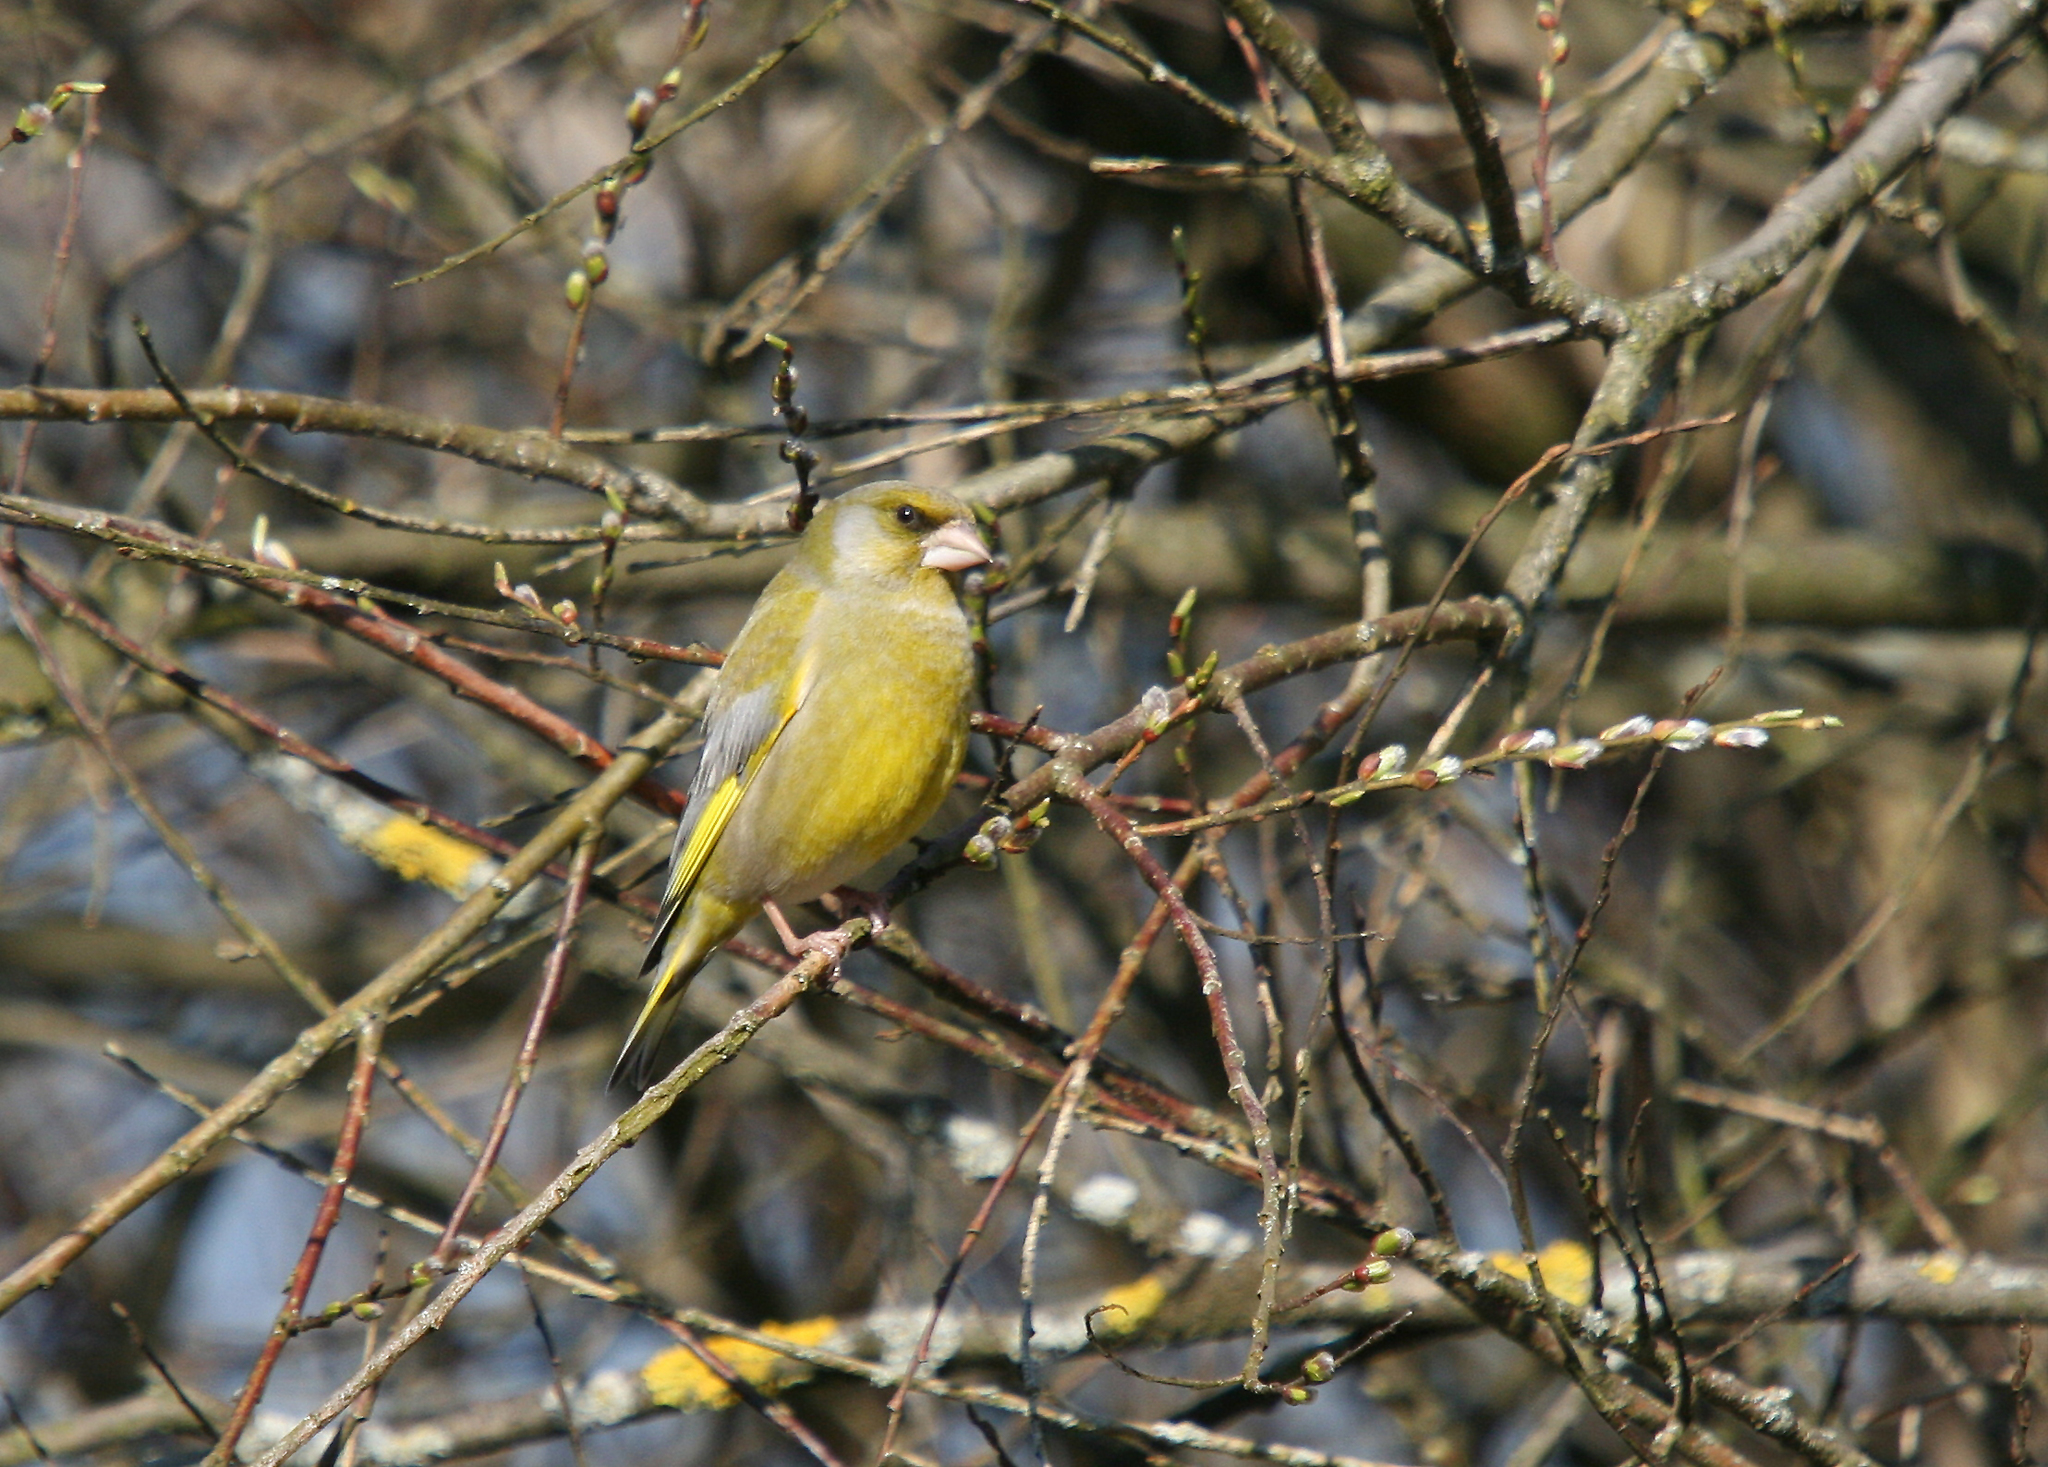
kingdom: Plantae
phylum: Tracheophyta
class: Liliopsida
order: Poales
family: Poaceae
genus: Chloris
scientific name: Chloris chloris
